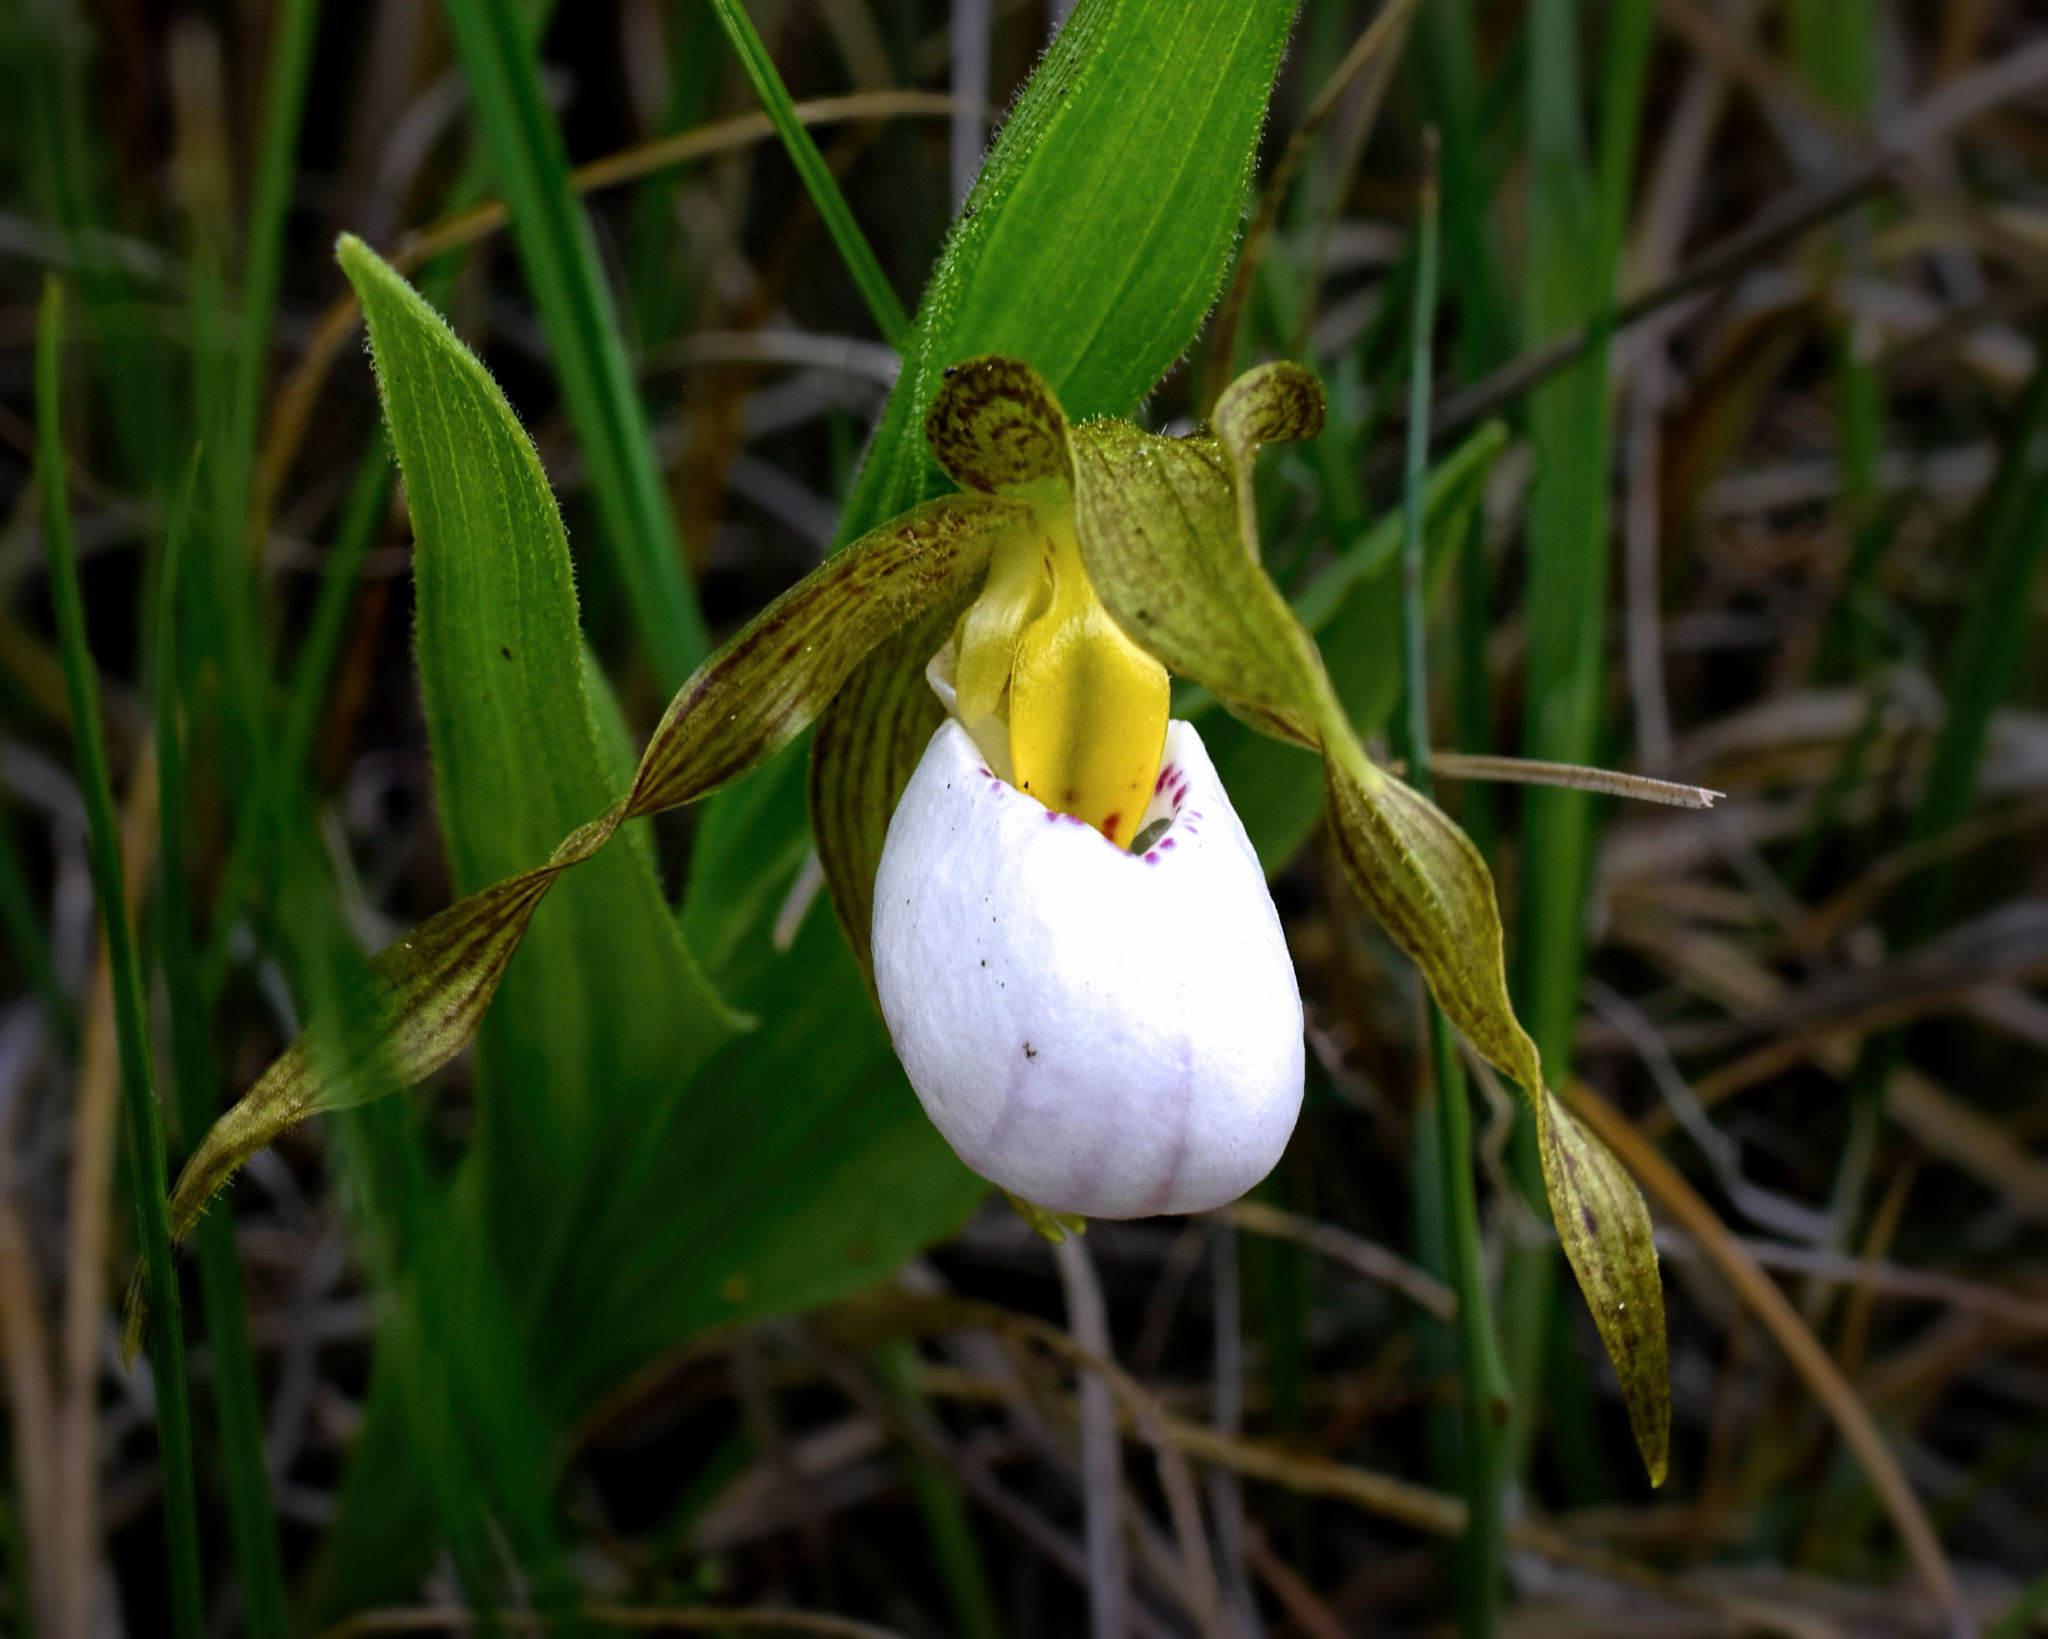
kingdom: Plantae
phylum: Tracheophyta
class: Liliopsida
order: Asparagales
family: Orchidaceae
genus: Cypripedium
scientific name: Cypripedium candidum
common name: White lady's-slipper
